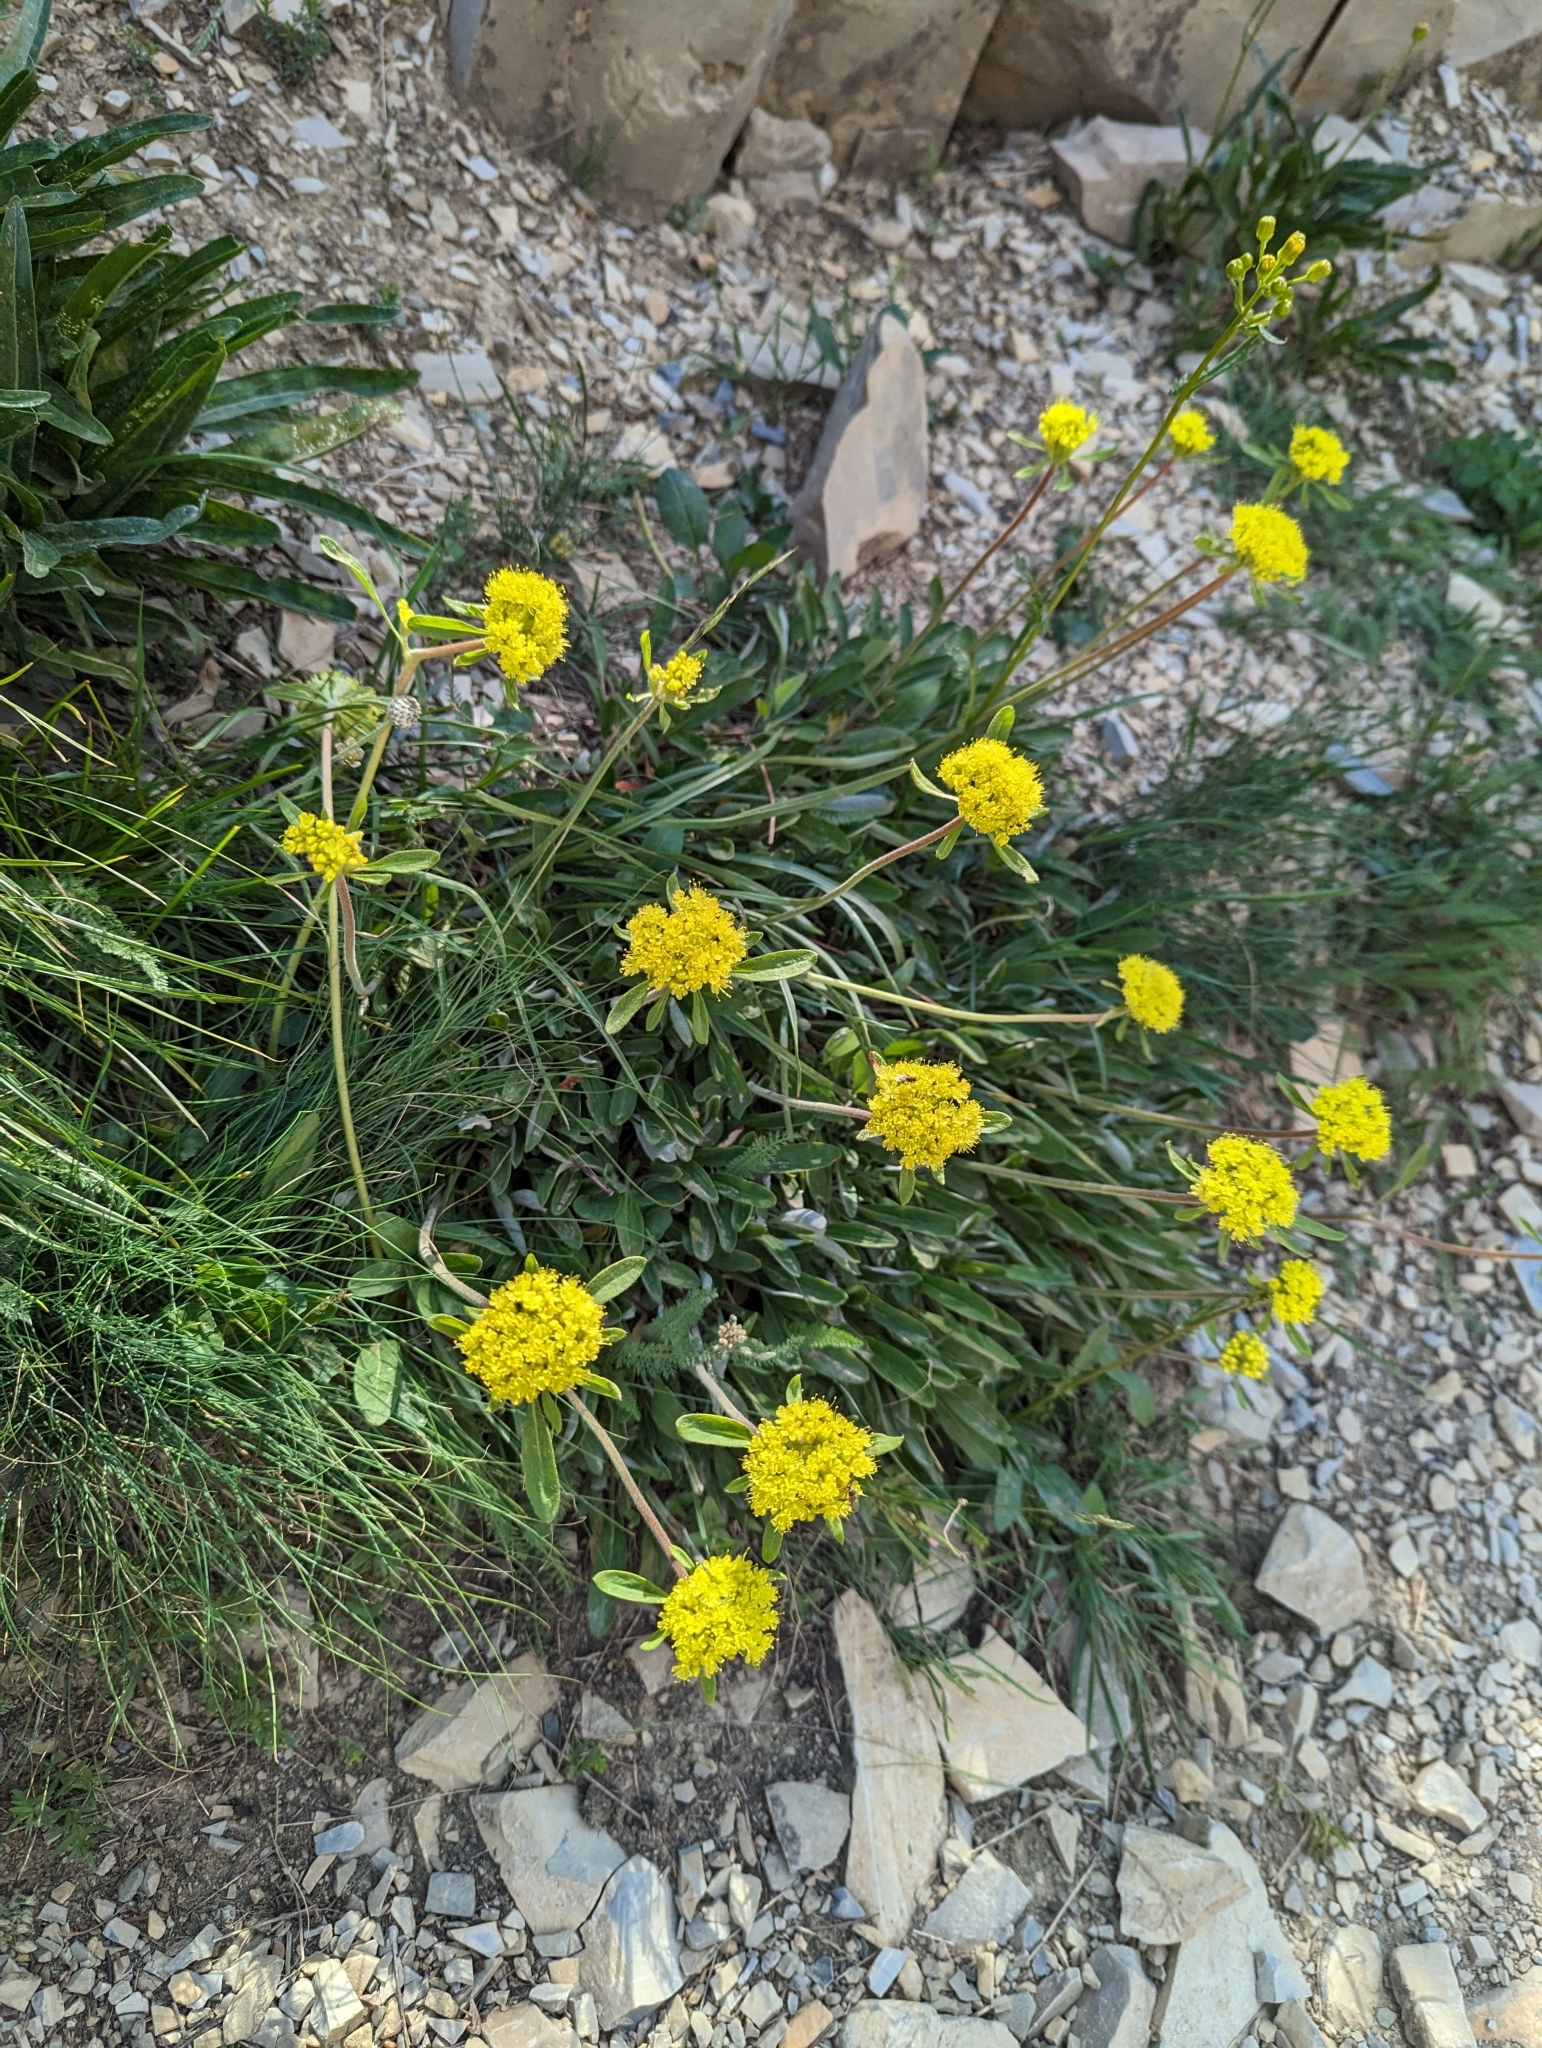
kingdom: Plantae
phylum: Tracheophyta
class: Magnoliopsida
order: Caryophyllales
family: Polygonaceae
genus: Eriogonum
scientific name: Eriogonum flavum
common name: Alpine golden wild buckwheat
